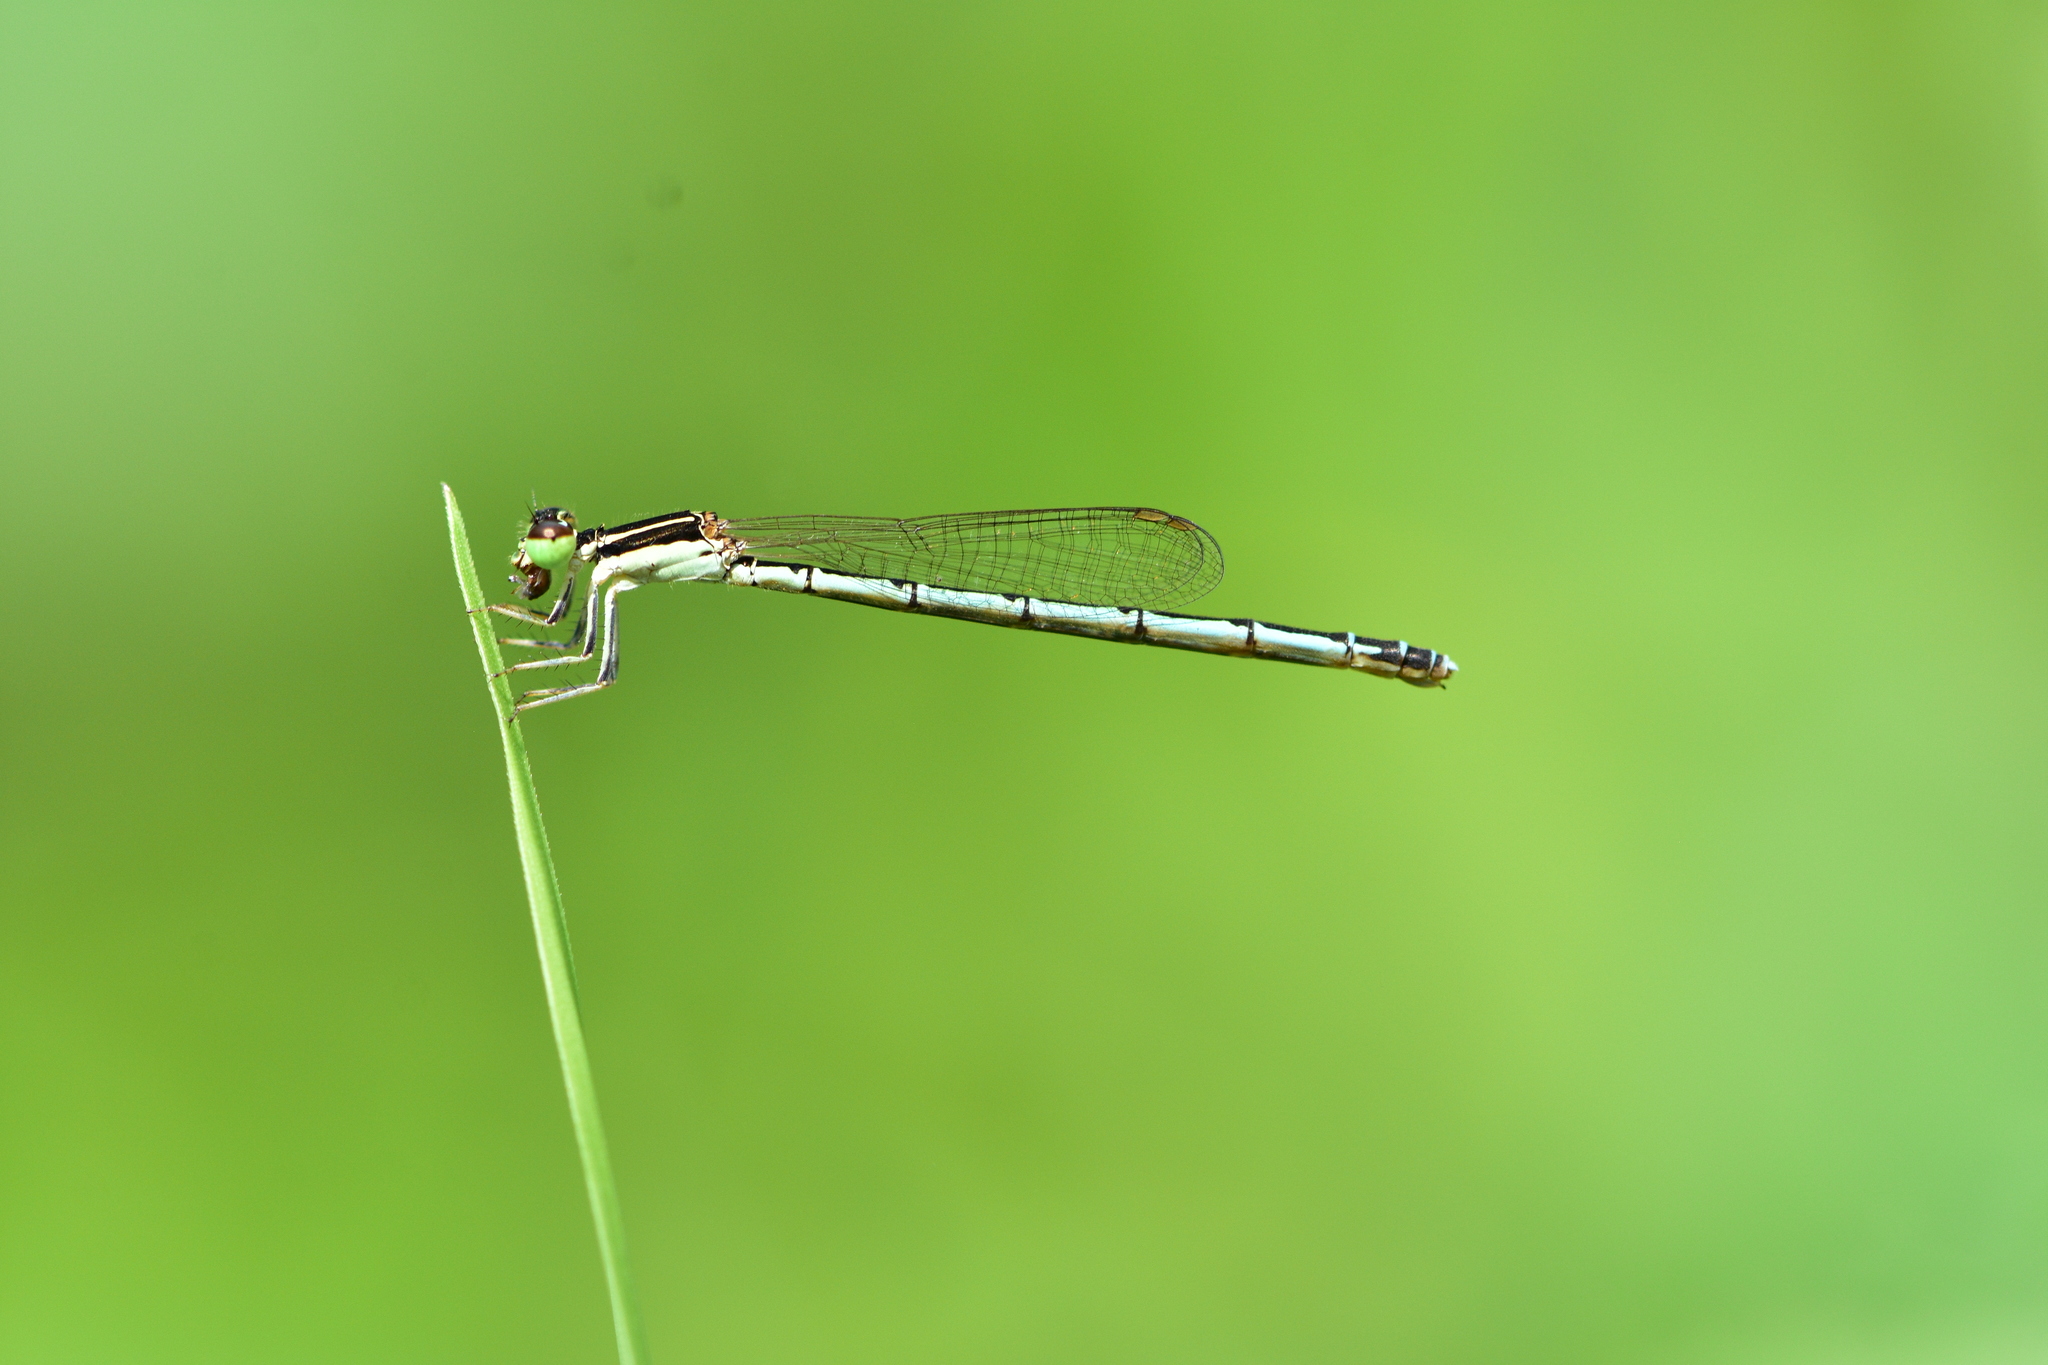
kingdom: Animalia
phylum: Arthropoda
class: Insecta
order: Odonata
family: Coenagrionidae
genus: Agriocnemis
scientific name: Agriocnemis pieris
